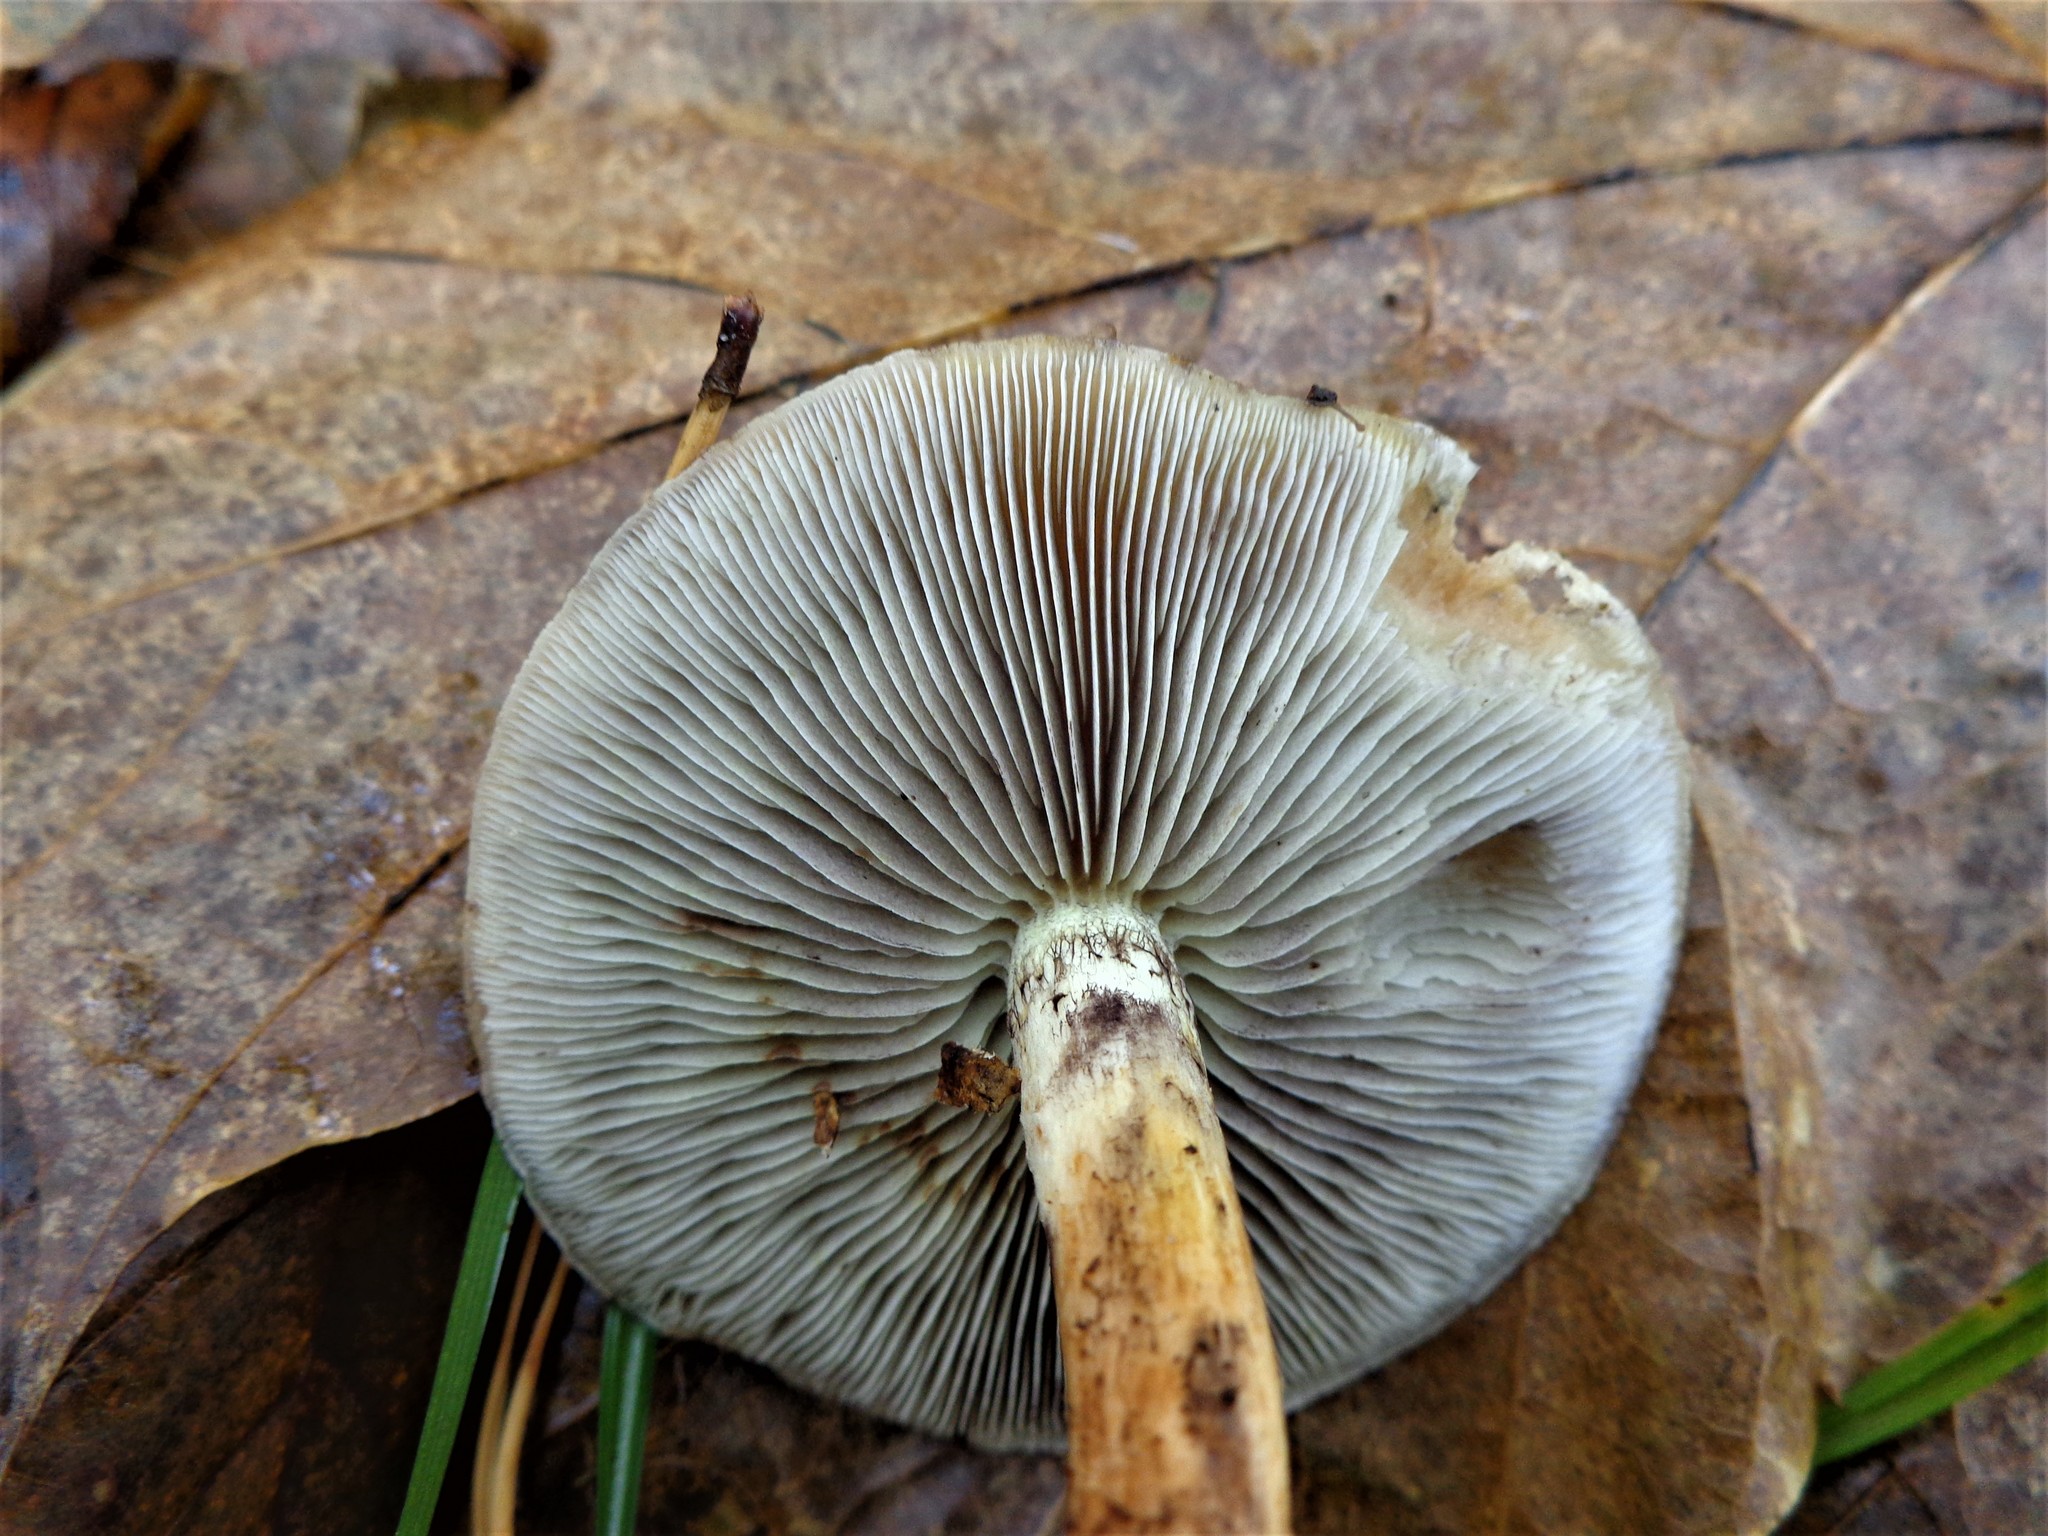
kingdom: Fungi
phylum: Basidiomycota
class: Agaricomycetes
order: Agaricales
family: Strophariaceae
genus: Hypholoma
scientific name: Hypholoma lateritium
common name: Brick caps
